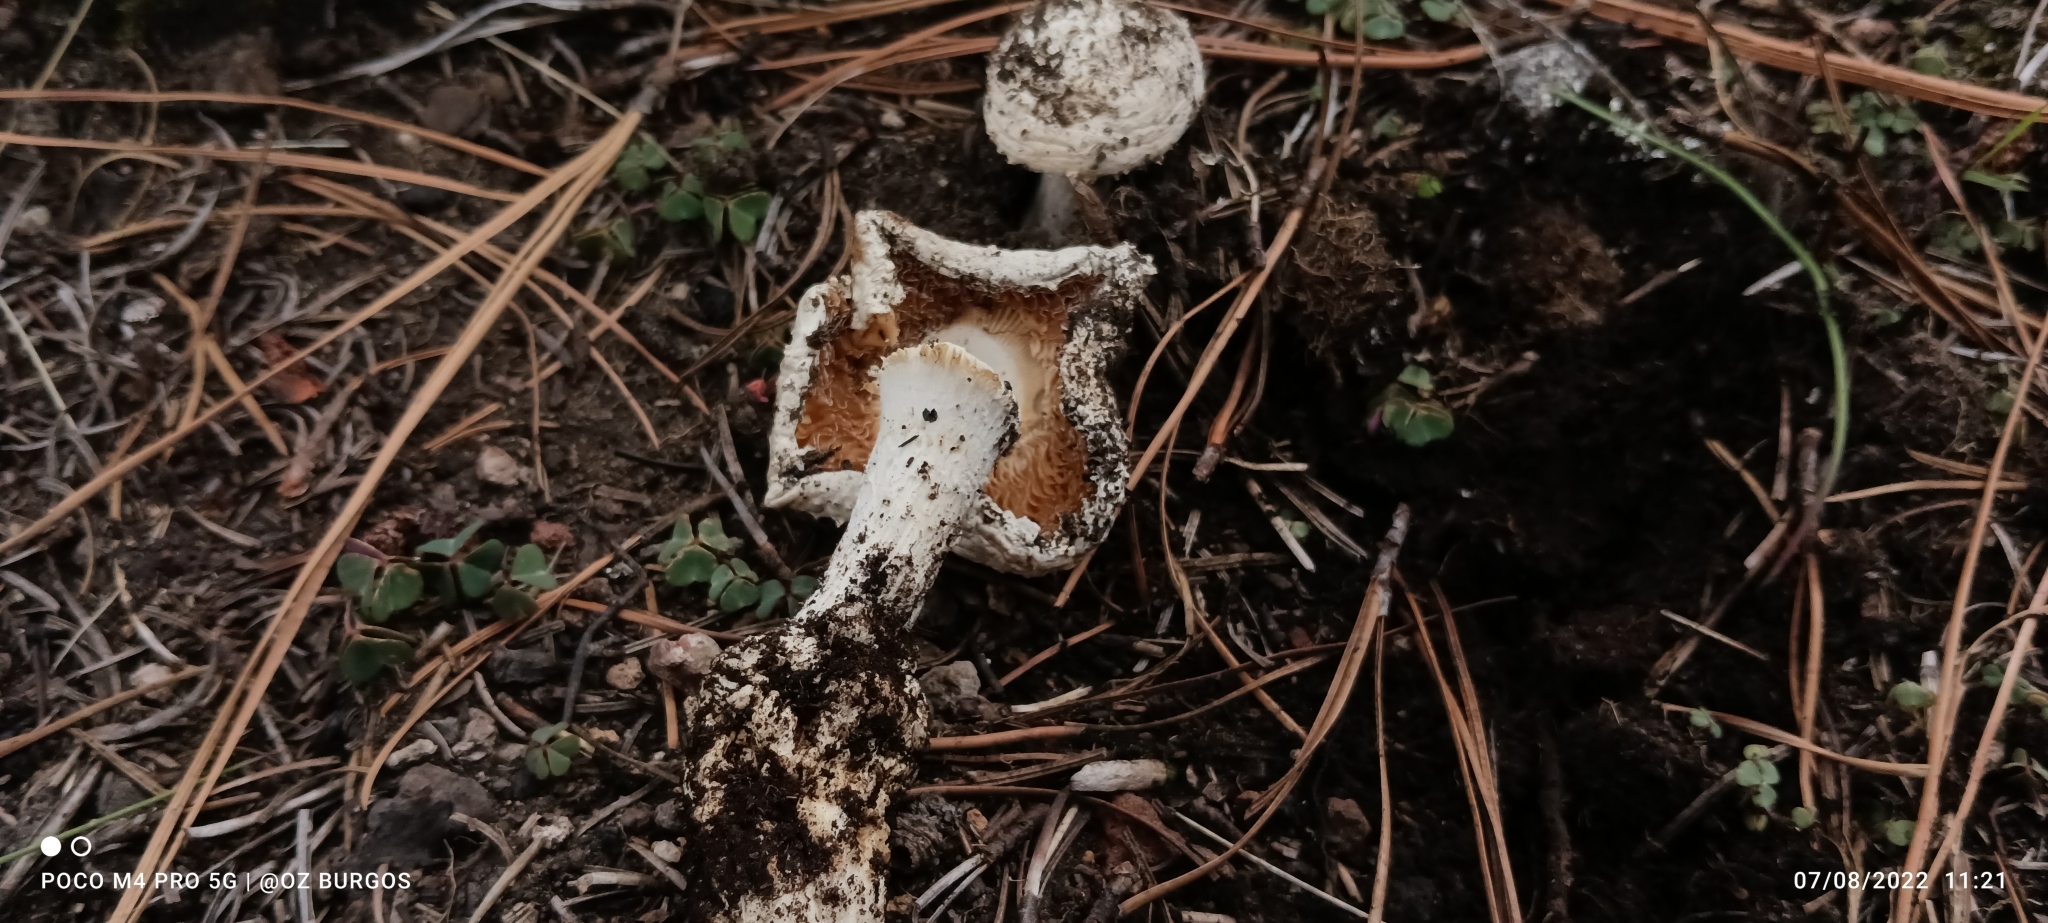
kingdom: Fungi
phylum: Basidiomycota
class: Agaricomycetes
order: Agaricales
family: Amanitaceae
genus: Amanita
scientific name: Amanita polypyramis
